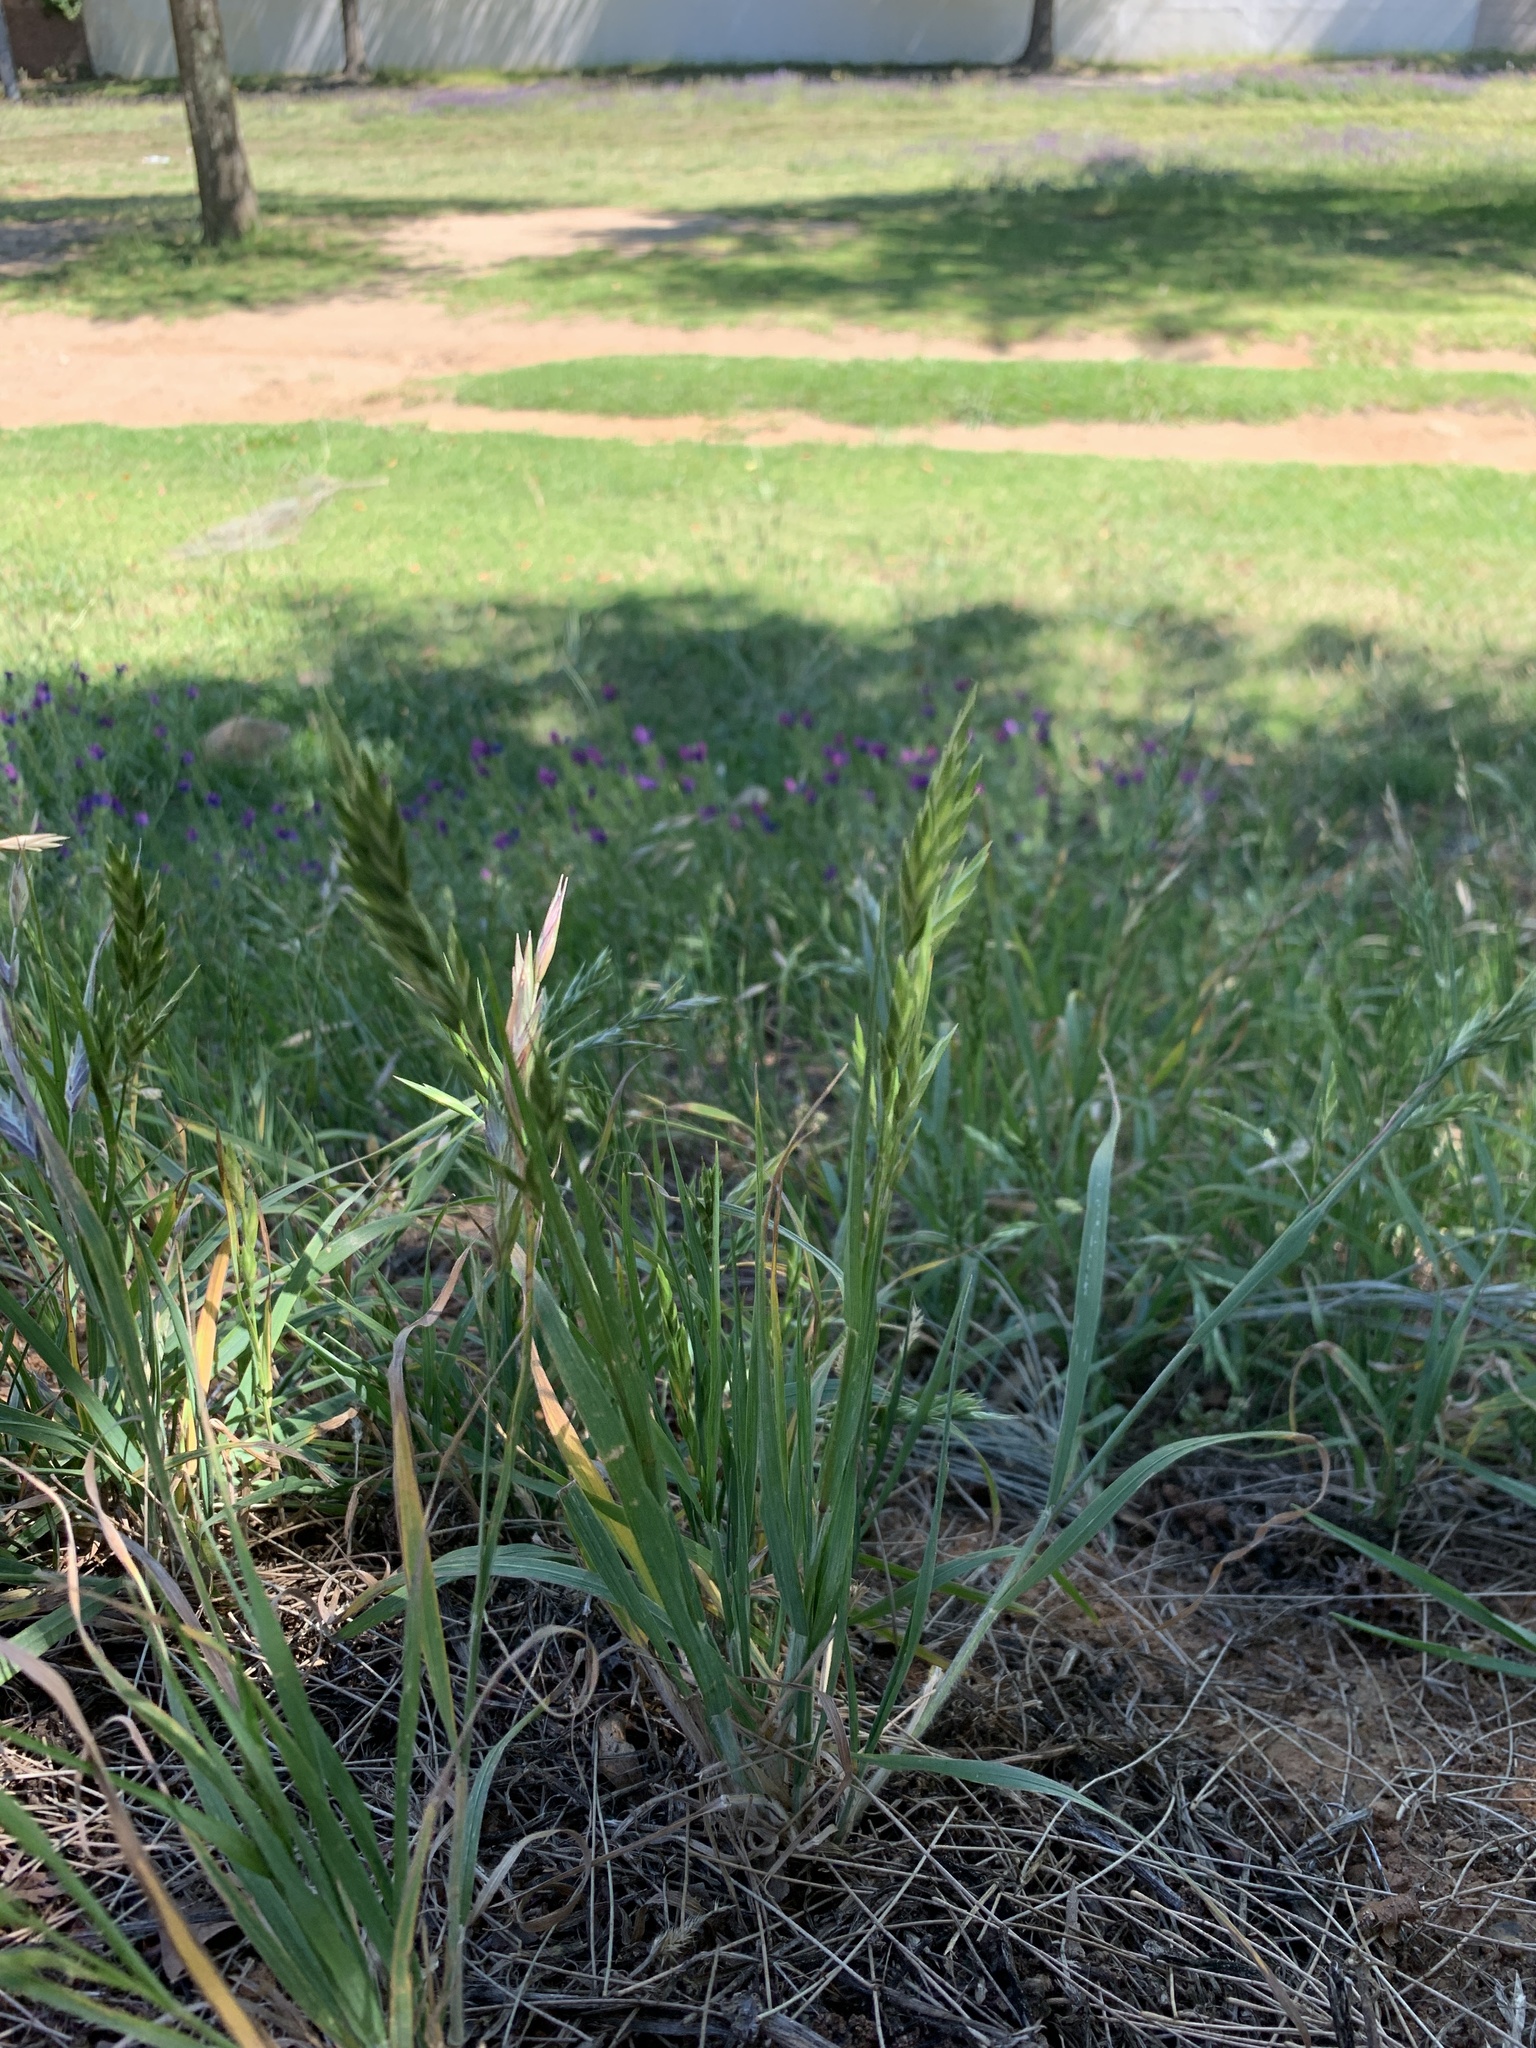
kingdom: Plantae
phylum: Tracheophyta
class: Liliopsida
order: Poales
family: Poaceae
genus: Bromus
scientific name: Bromus catharticus
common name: Rescuegrass
